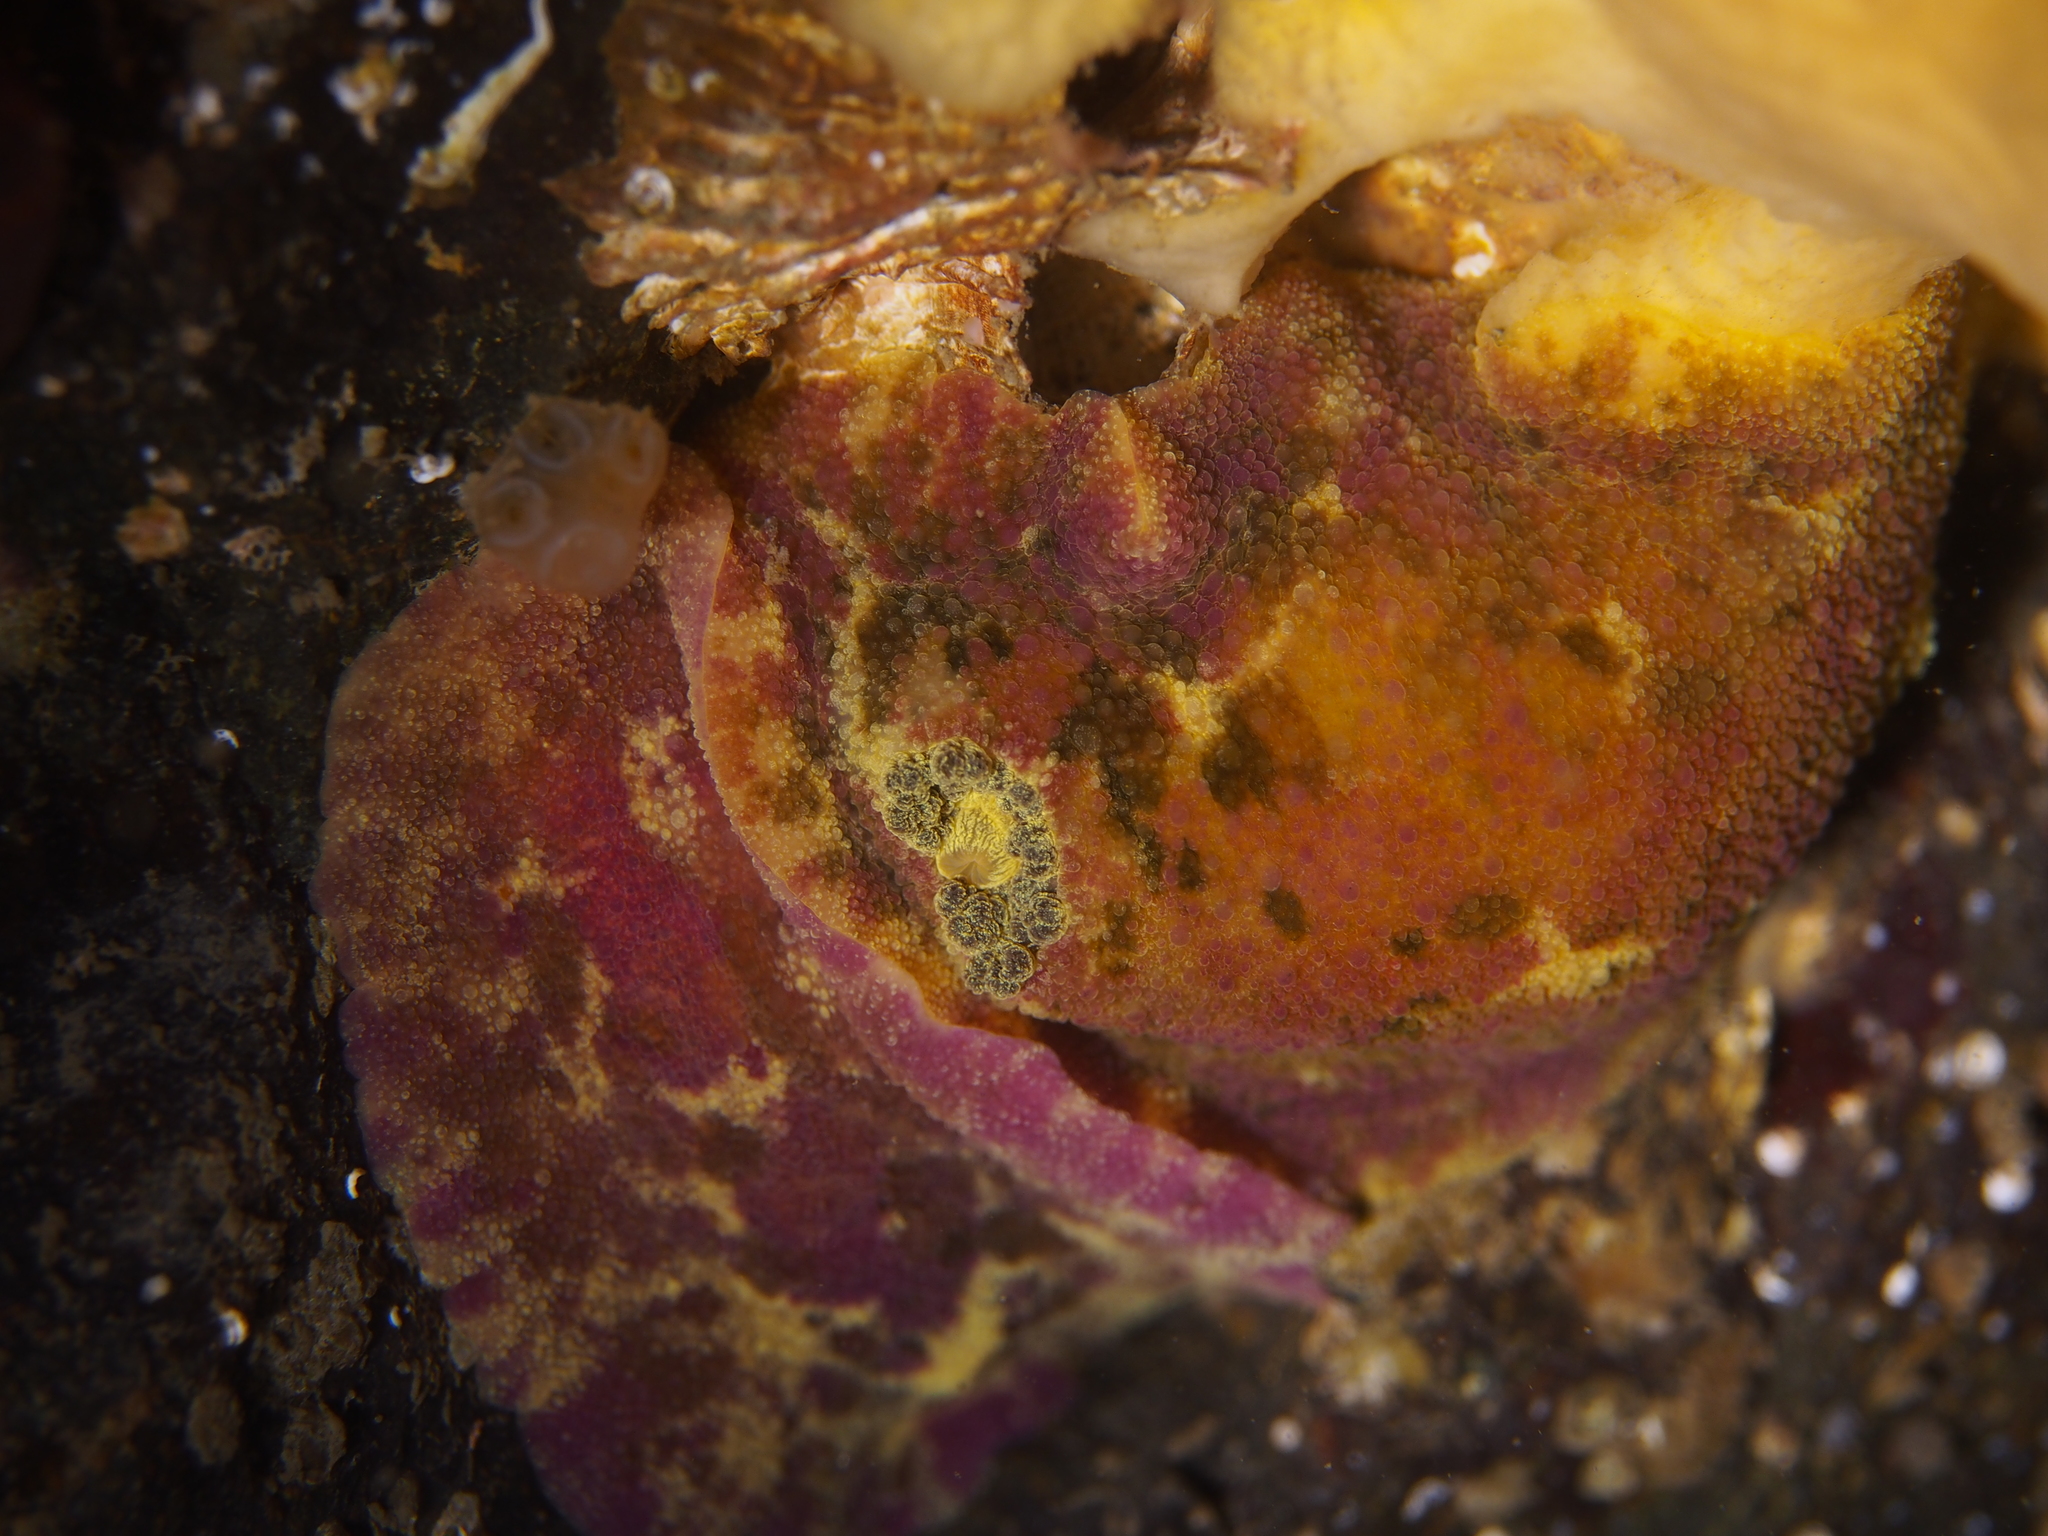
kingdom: Animalia
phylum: Mollusca
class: Gastropoda
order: Nudibranchia
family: Dorididae
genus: Doris
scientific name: Doris pseudoargus
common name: Sea lemon
